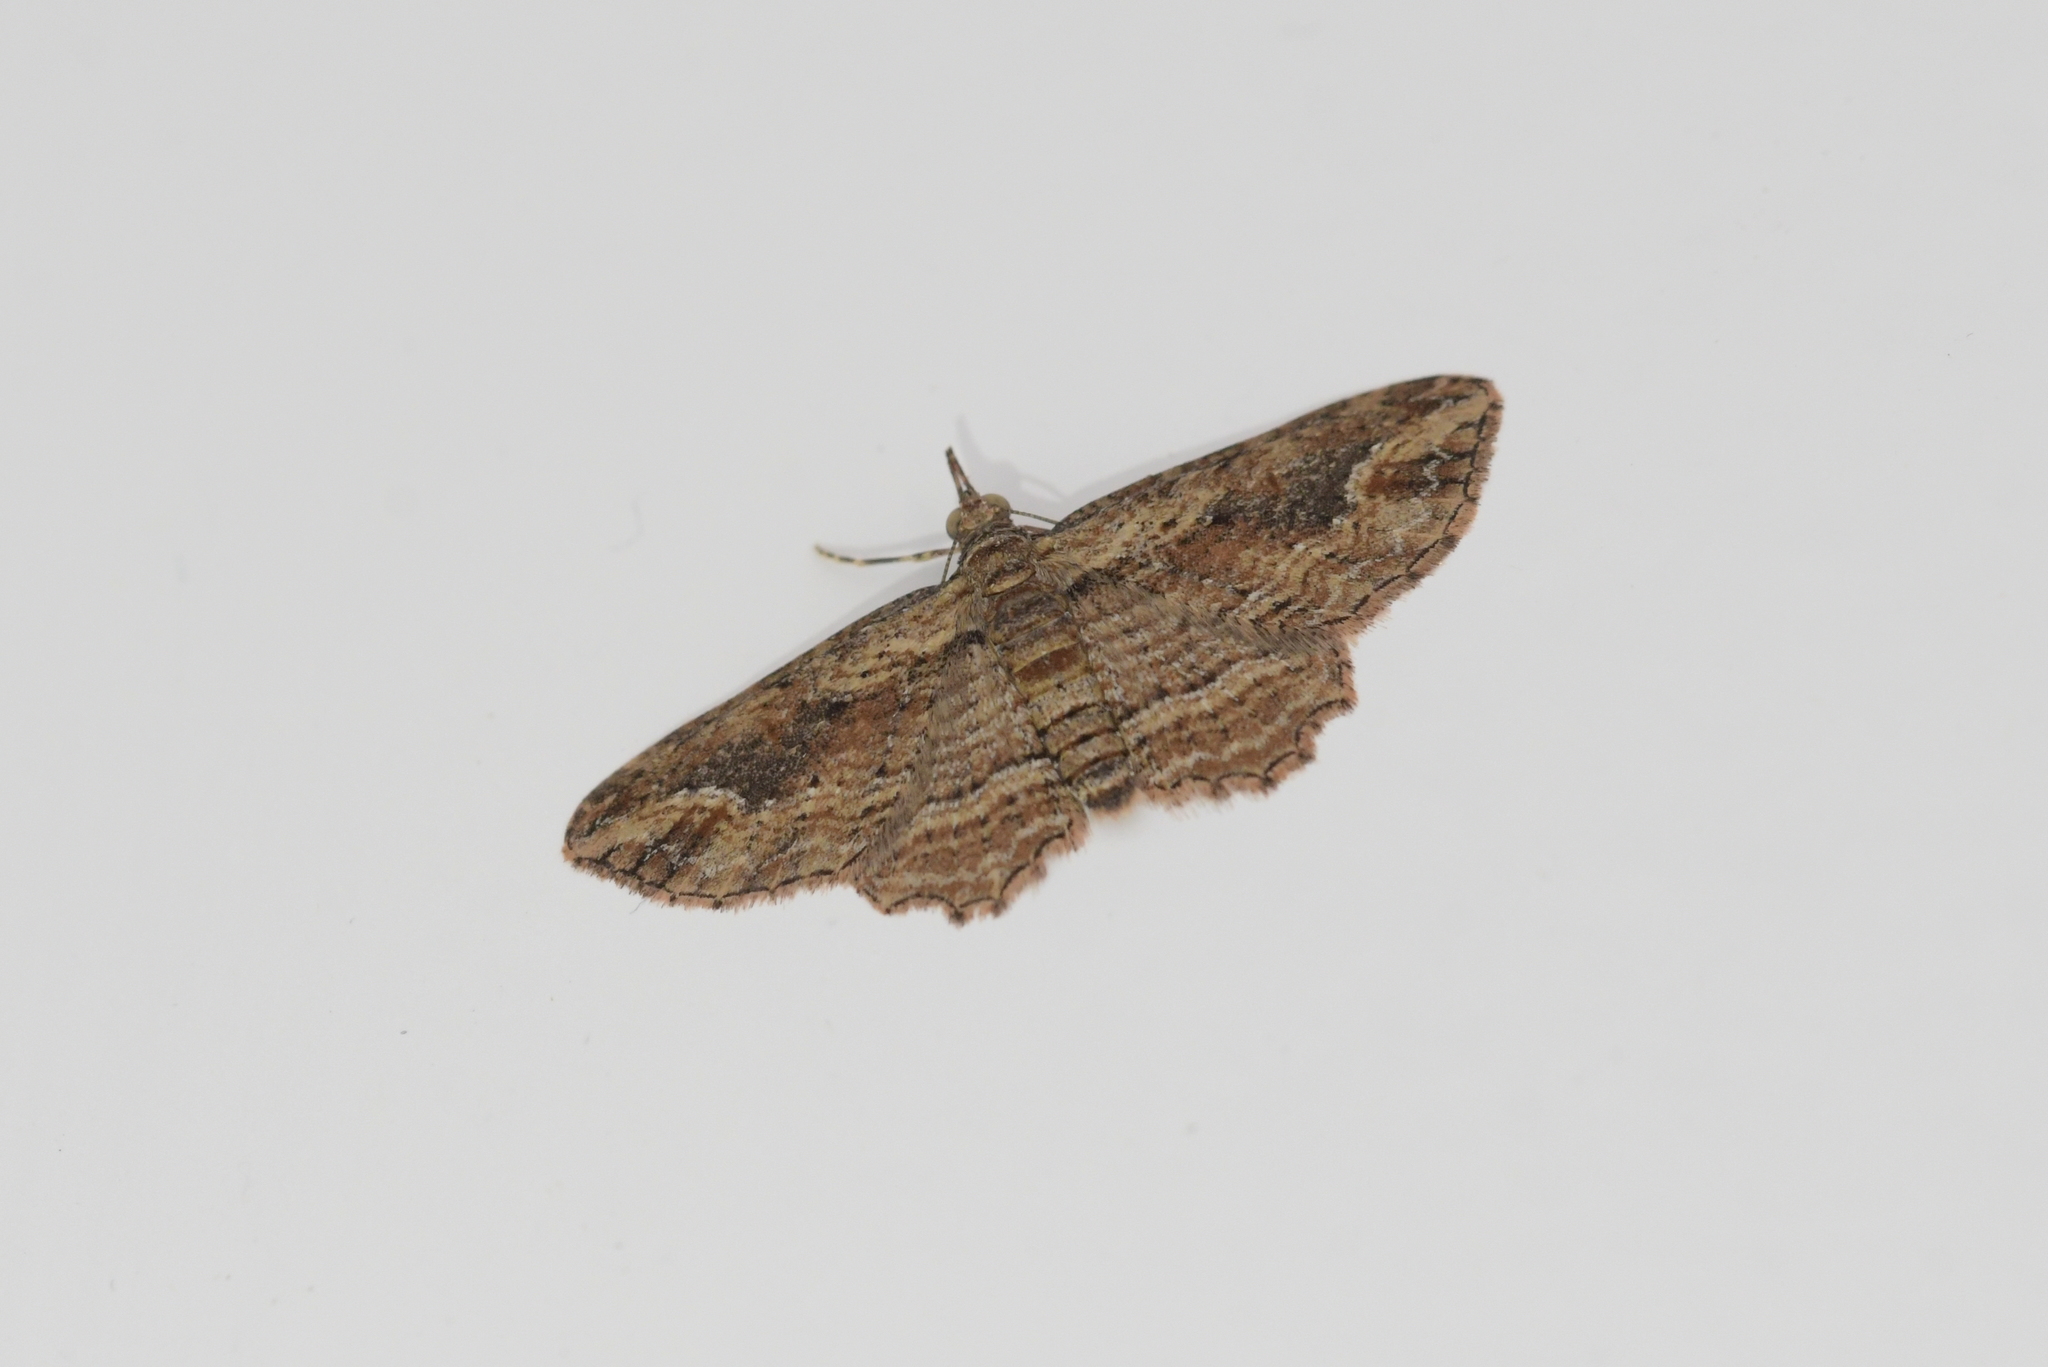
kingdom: Animalia
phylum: Arthropoda
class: Insecta
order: Lepidoptera
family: Geometridae
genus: Chloroclystis
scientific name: Chloroclystis filata
